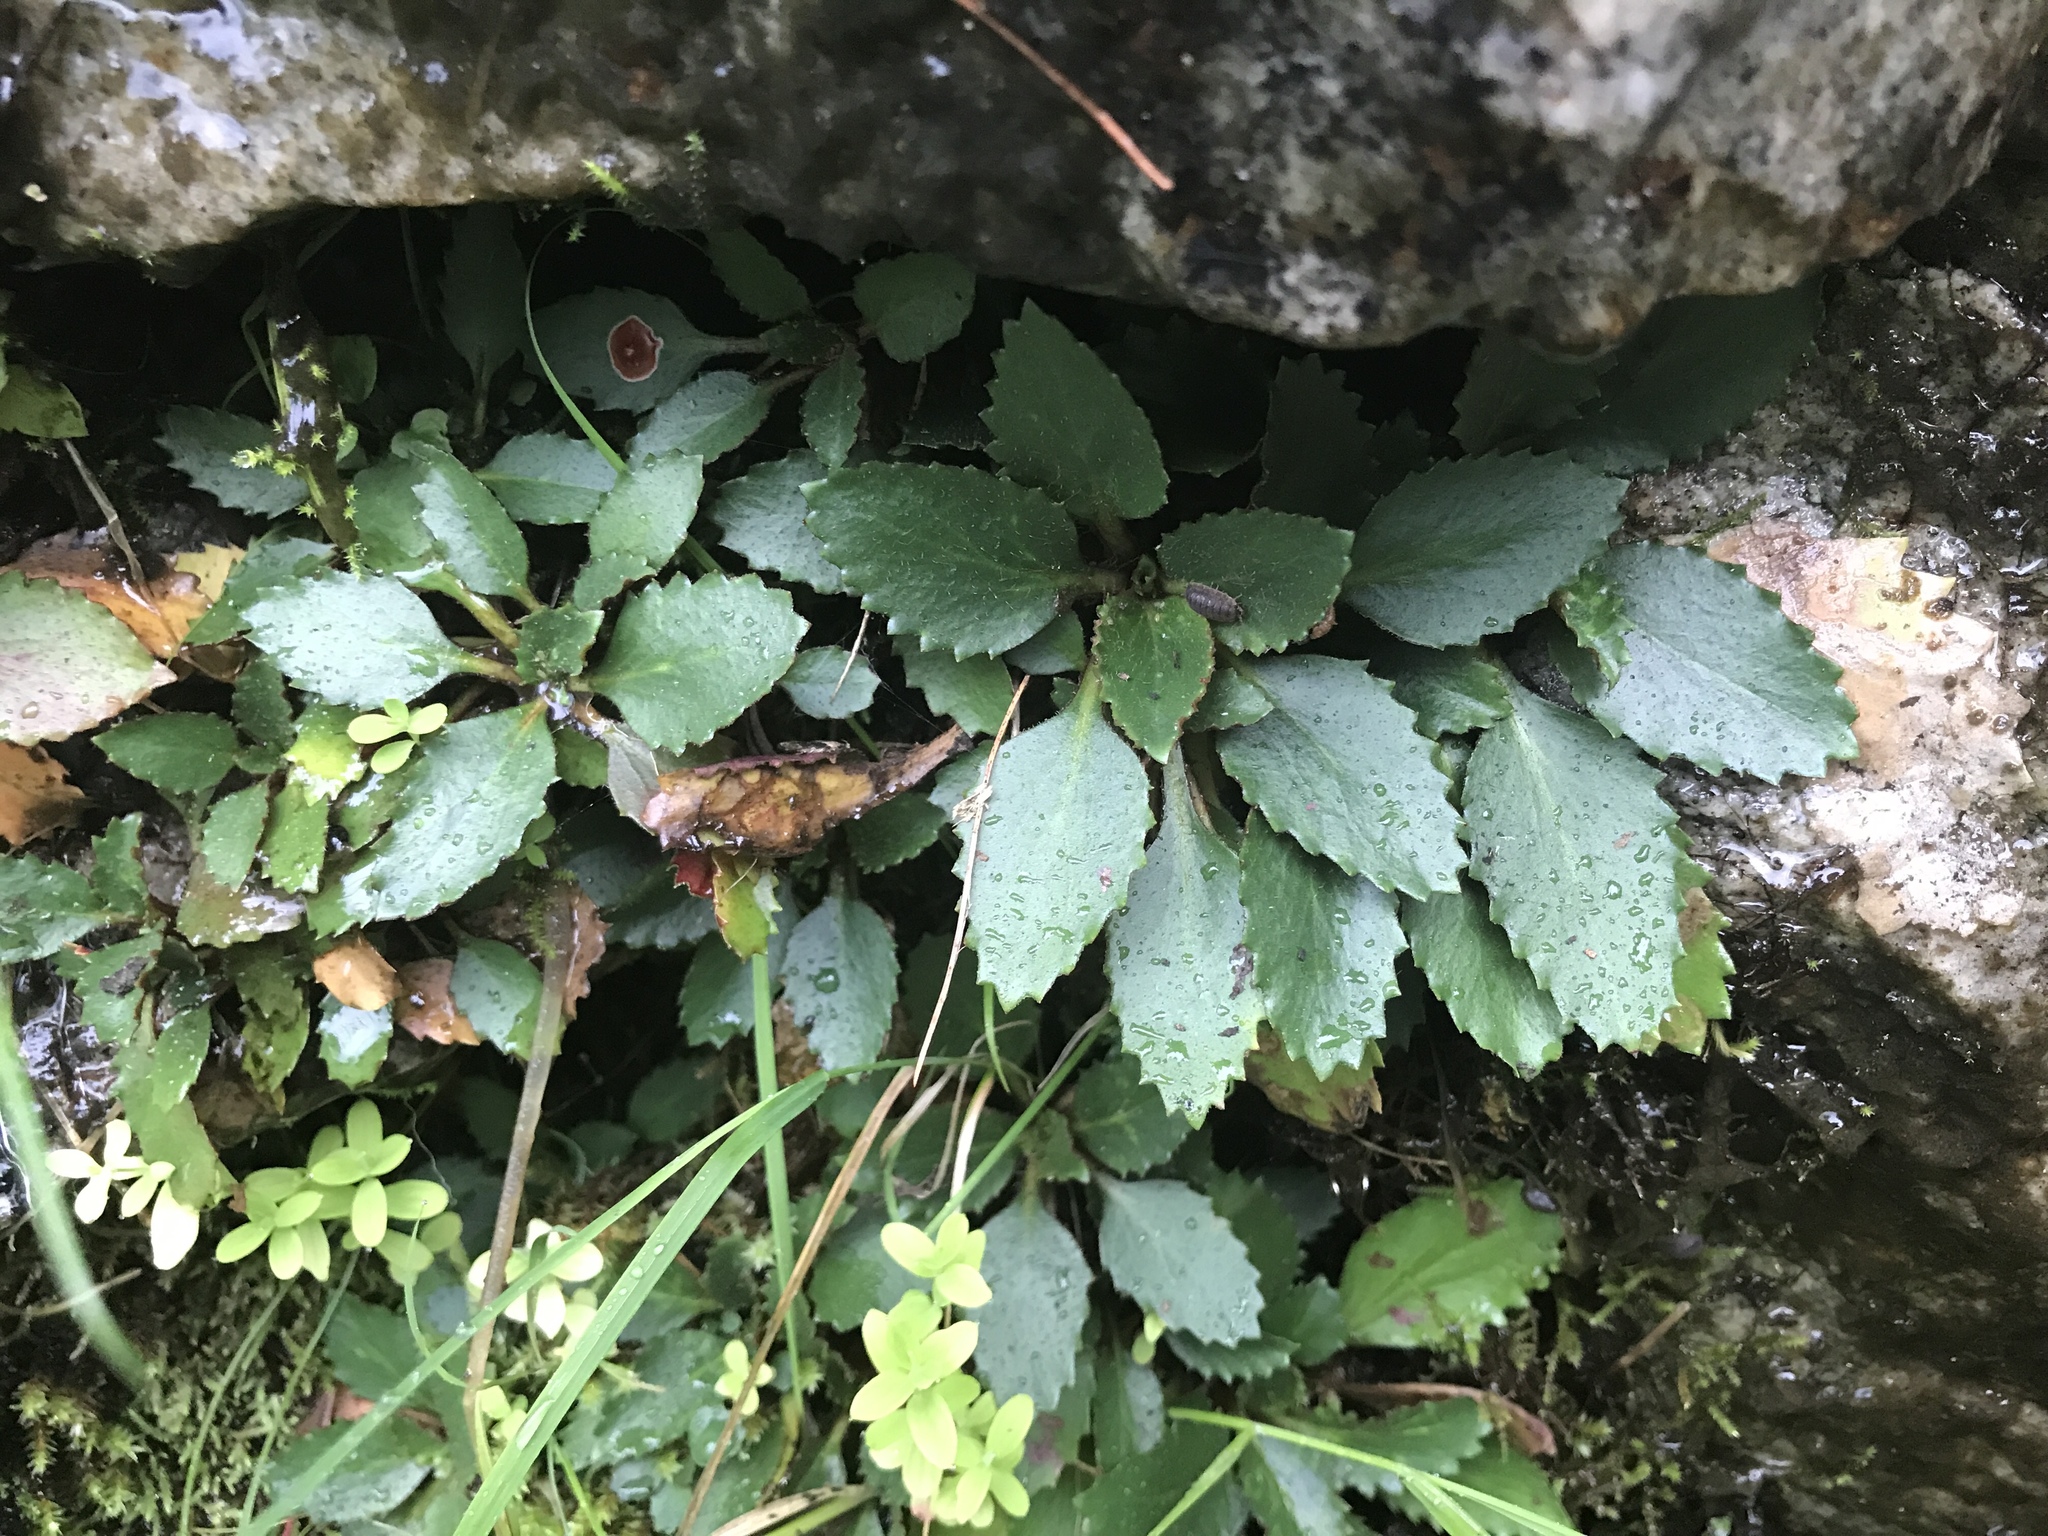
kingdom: Plantae
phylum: Tracheophyta
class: Magnoliopsida
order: Saxifragales
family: Saxifragaceae
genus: Micranthes
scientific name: Micranthes virginiensis
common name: Early saxifrage
